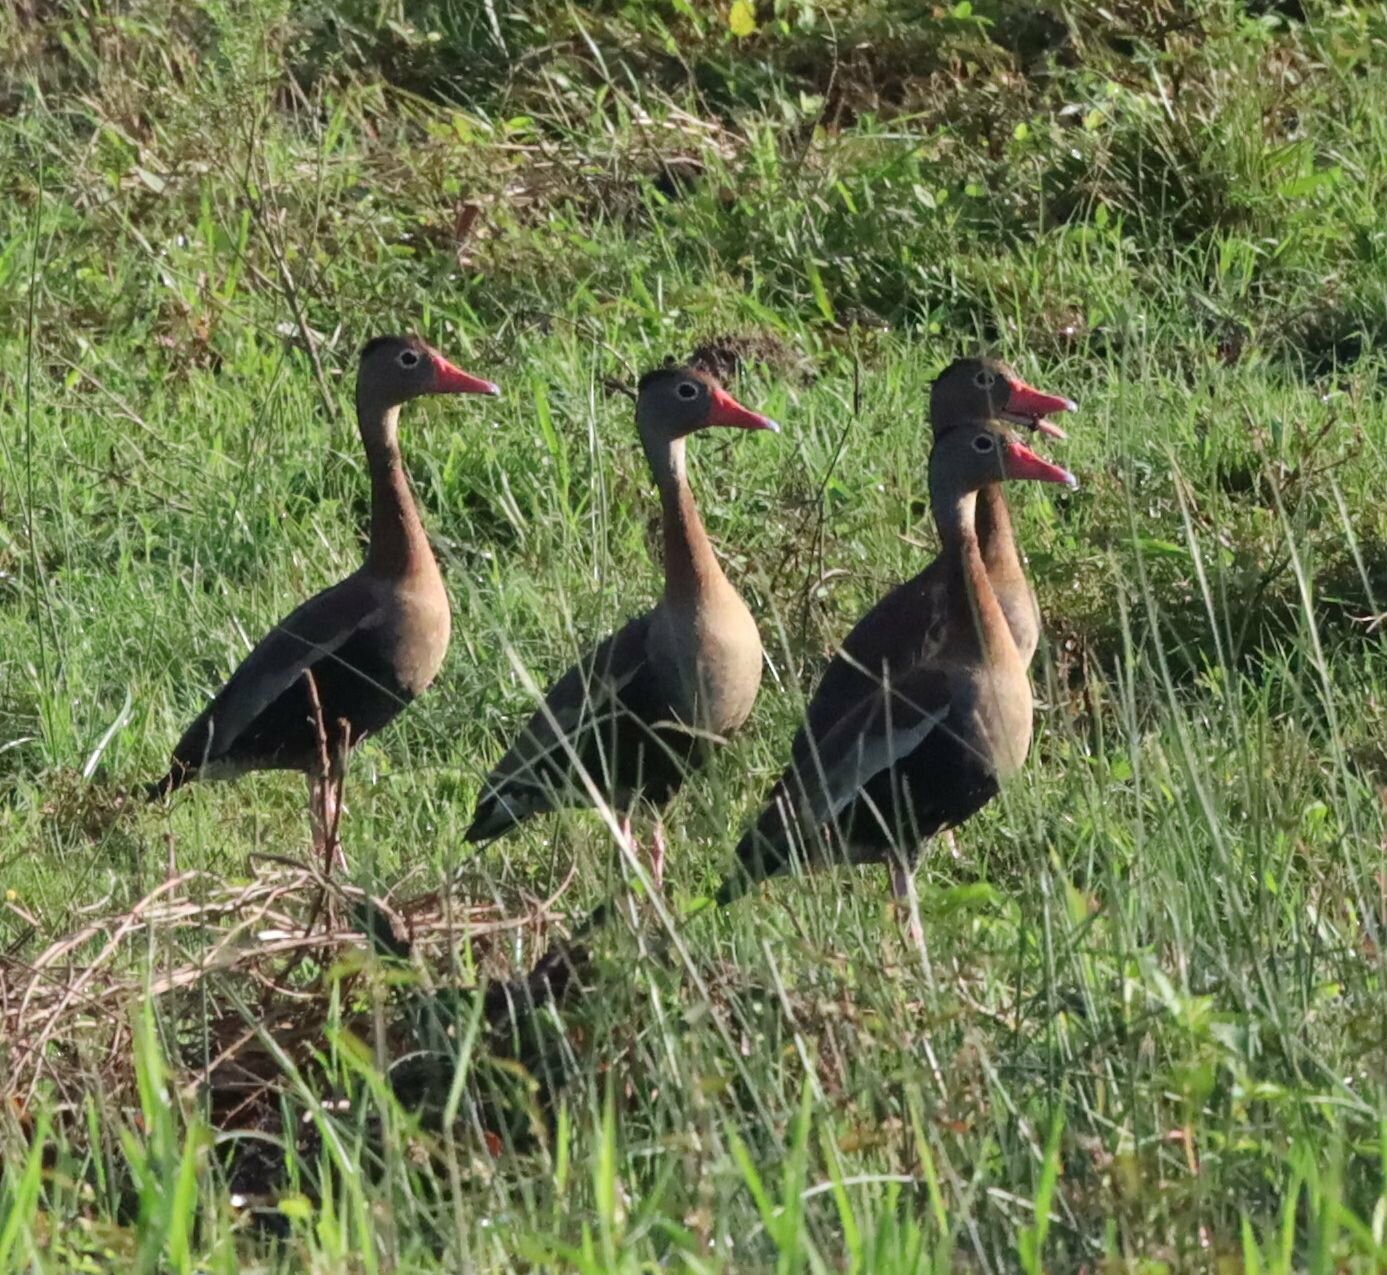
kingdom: Animalia
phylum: Chordata
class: Aves
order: Anseriformes
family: Anatidae
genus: Dendrocygna
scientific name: Dendrocygna autumnalis
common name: Black-bellied whistling duck
